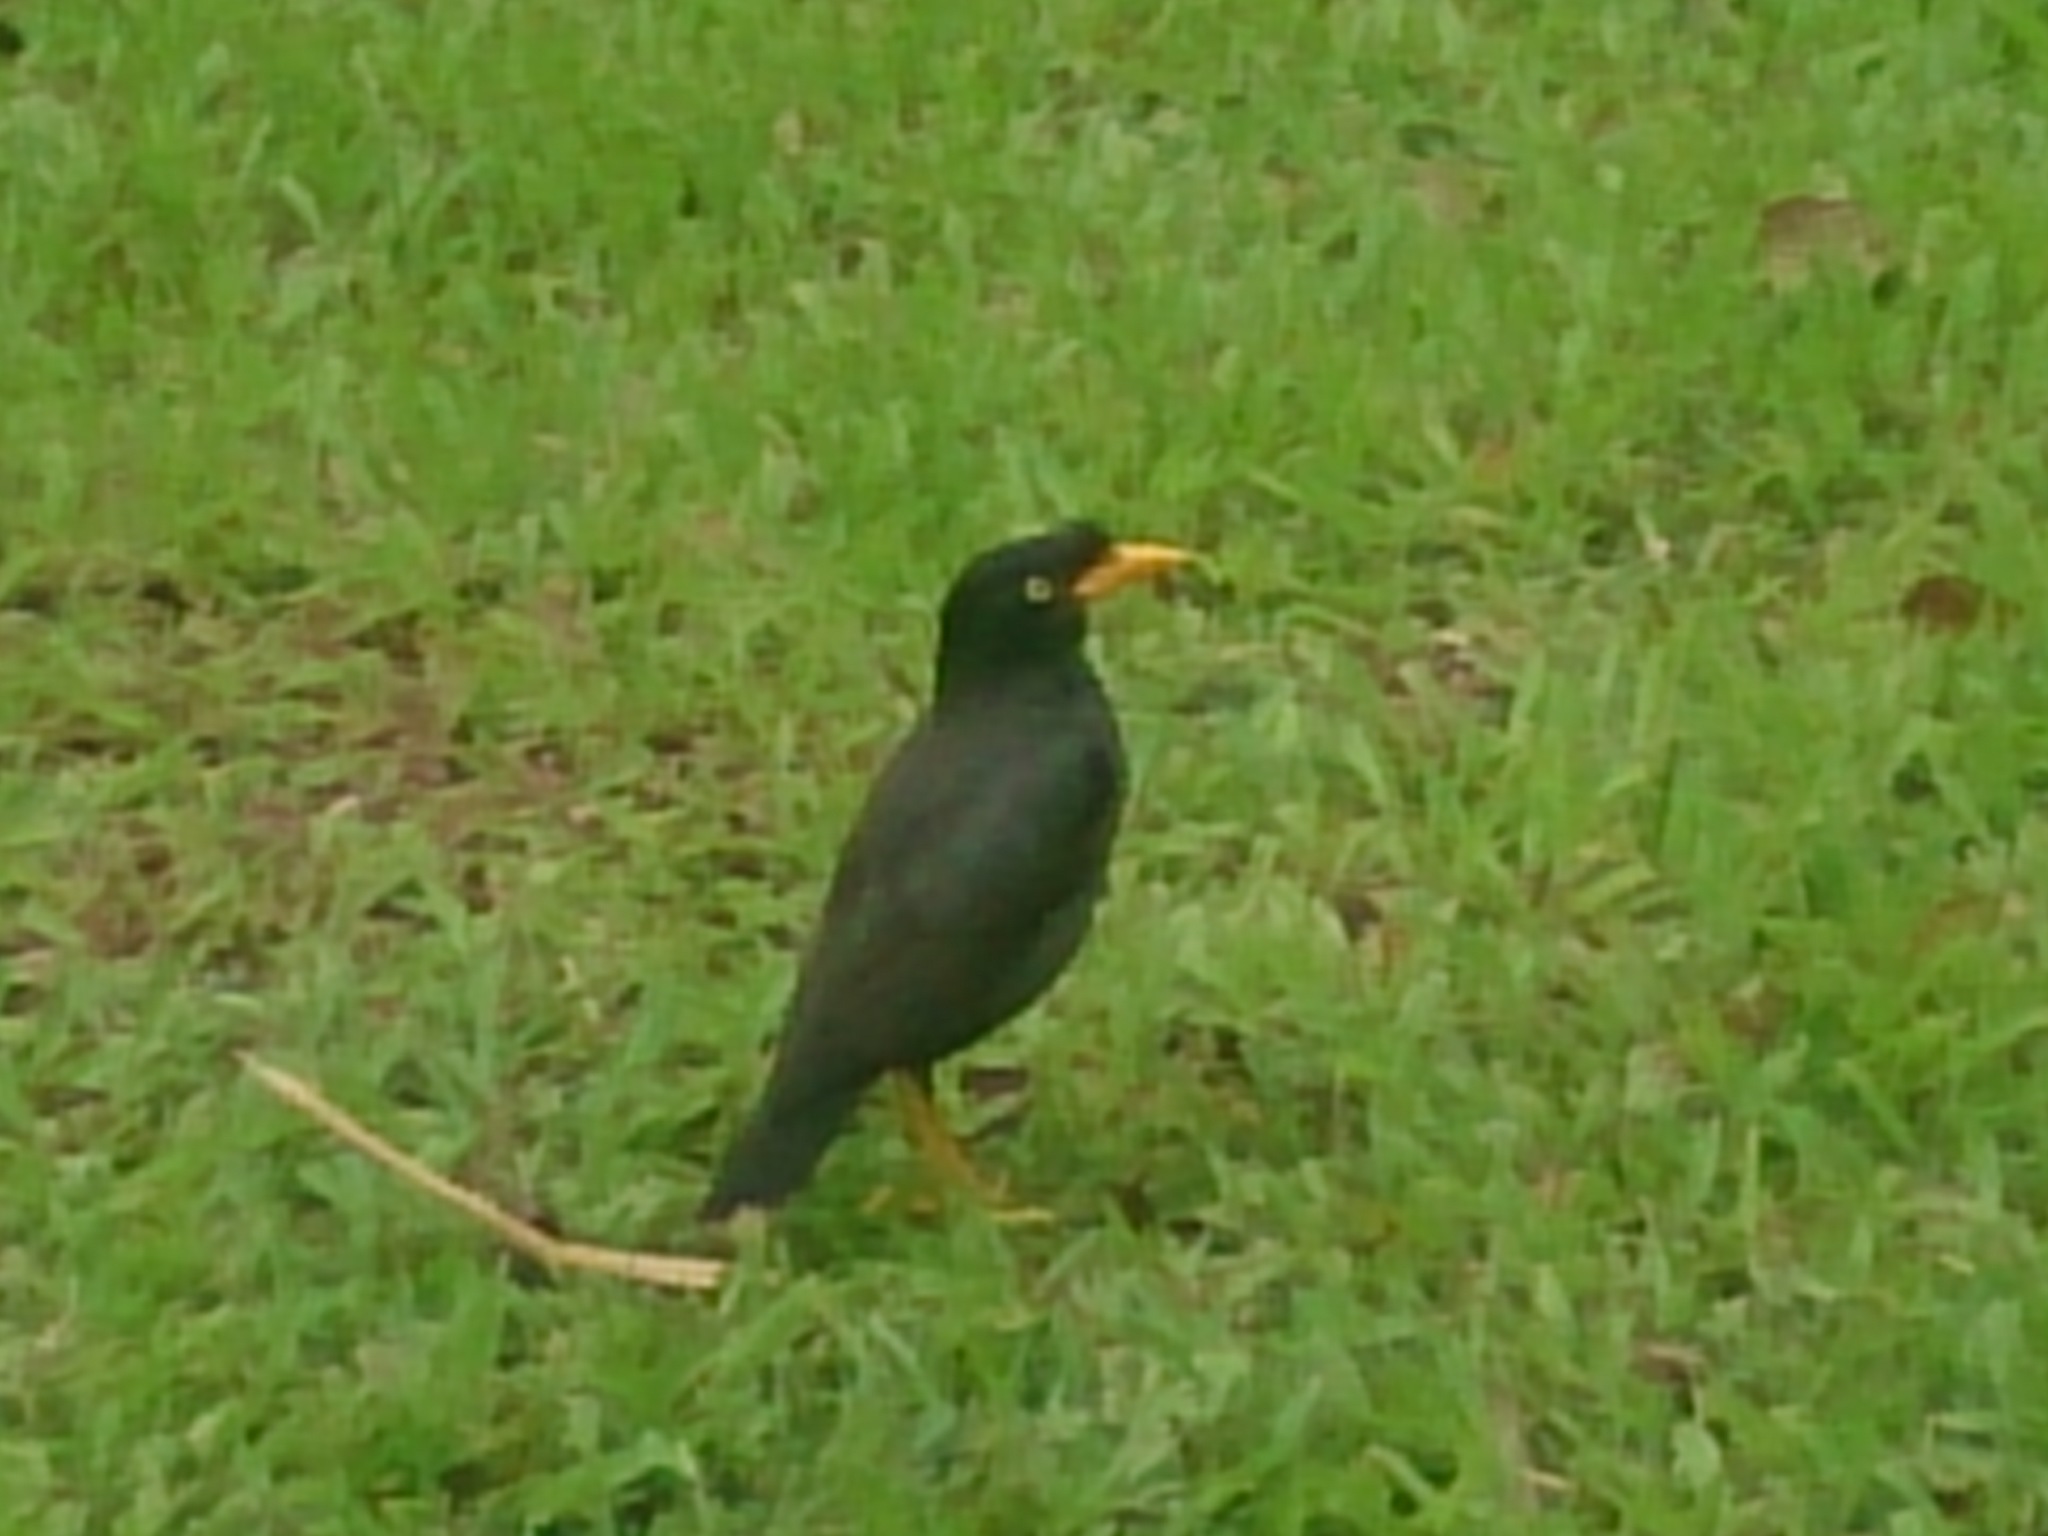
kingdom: Animalia
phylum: Chordata
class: Aves
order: Passeriformes
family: Sturnidae
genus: Acridotheres
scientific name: Acridotheres javanicus
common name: Javan myna
